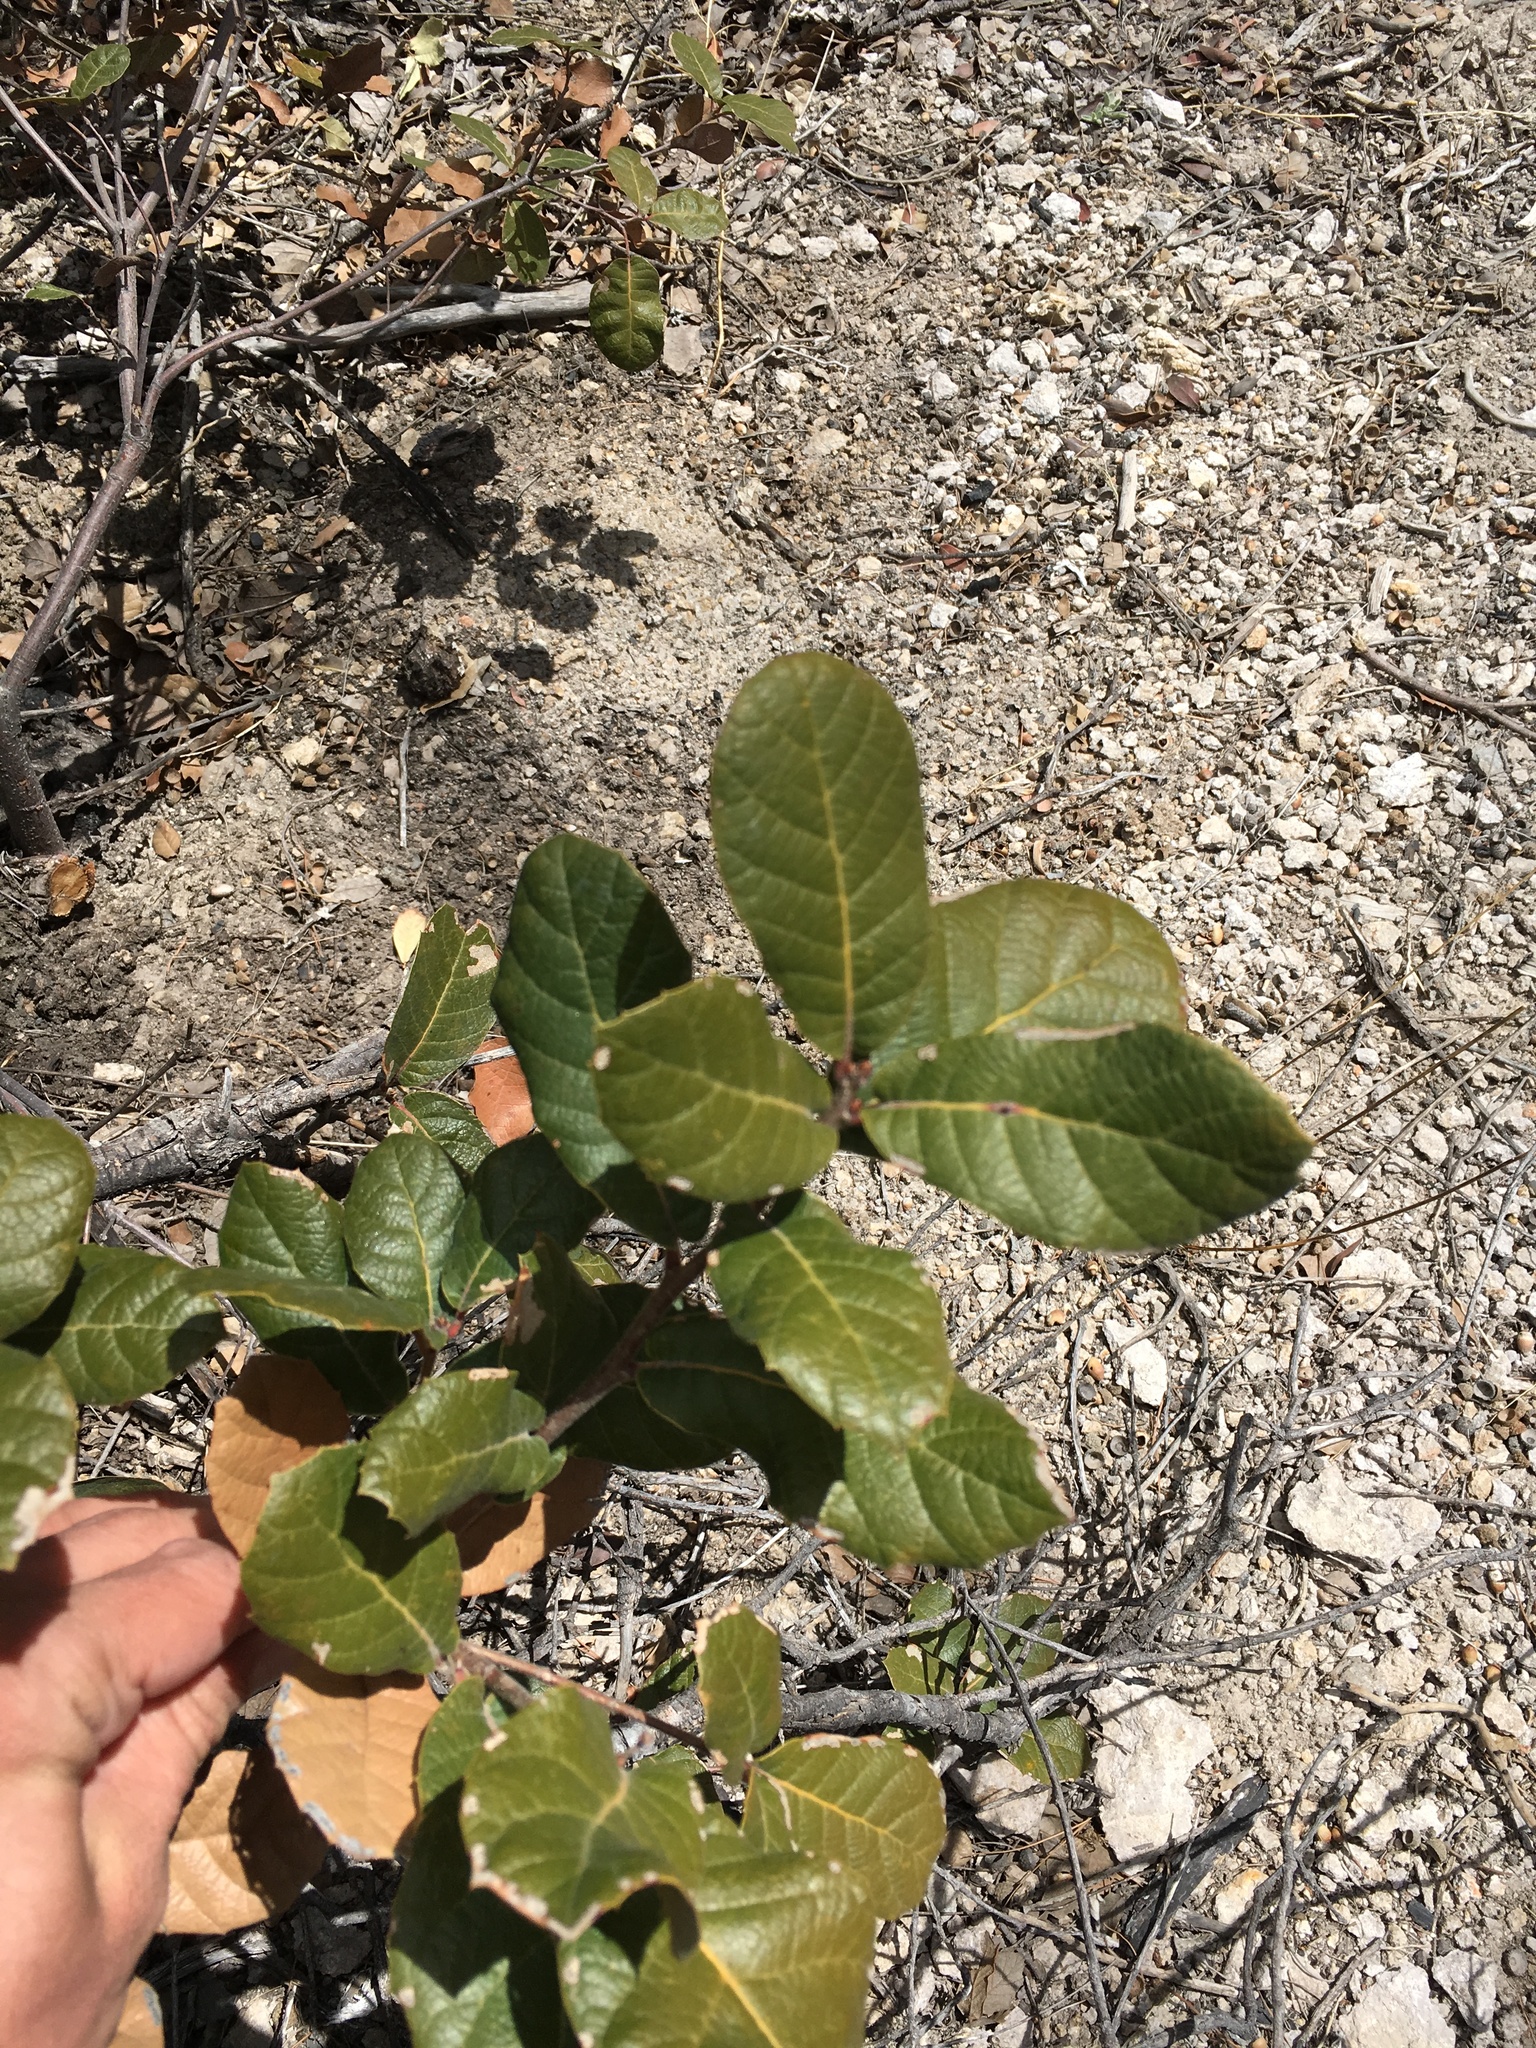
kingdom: Plantae
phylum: Tracheophyta
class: Magnoliopsida
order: Fagales
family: Fagaceae
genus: Quercus
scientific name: Quercus rugosa
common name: Netleaf oak
